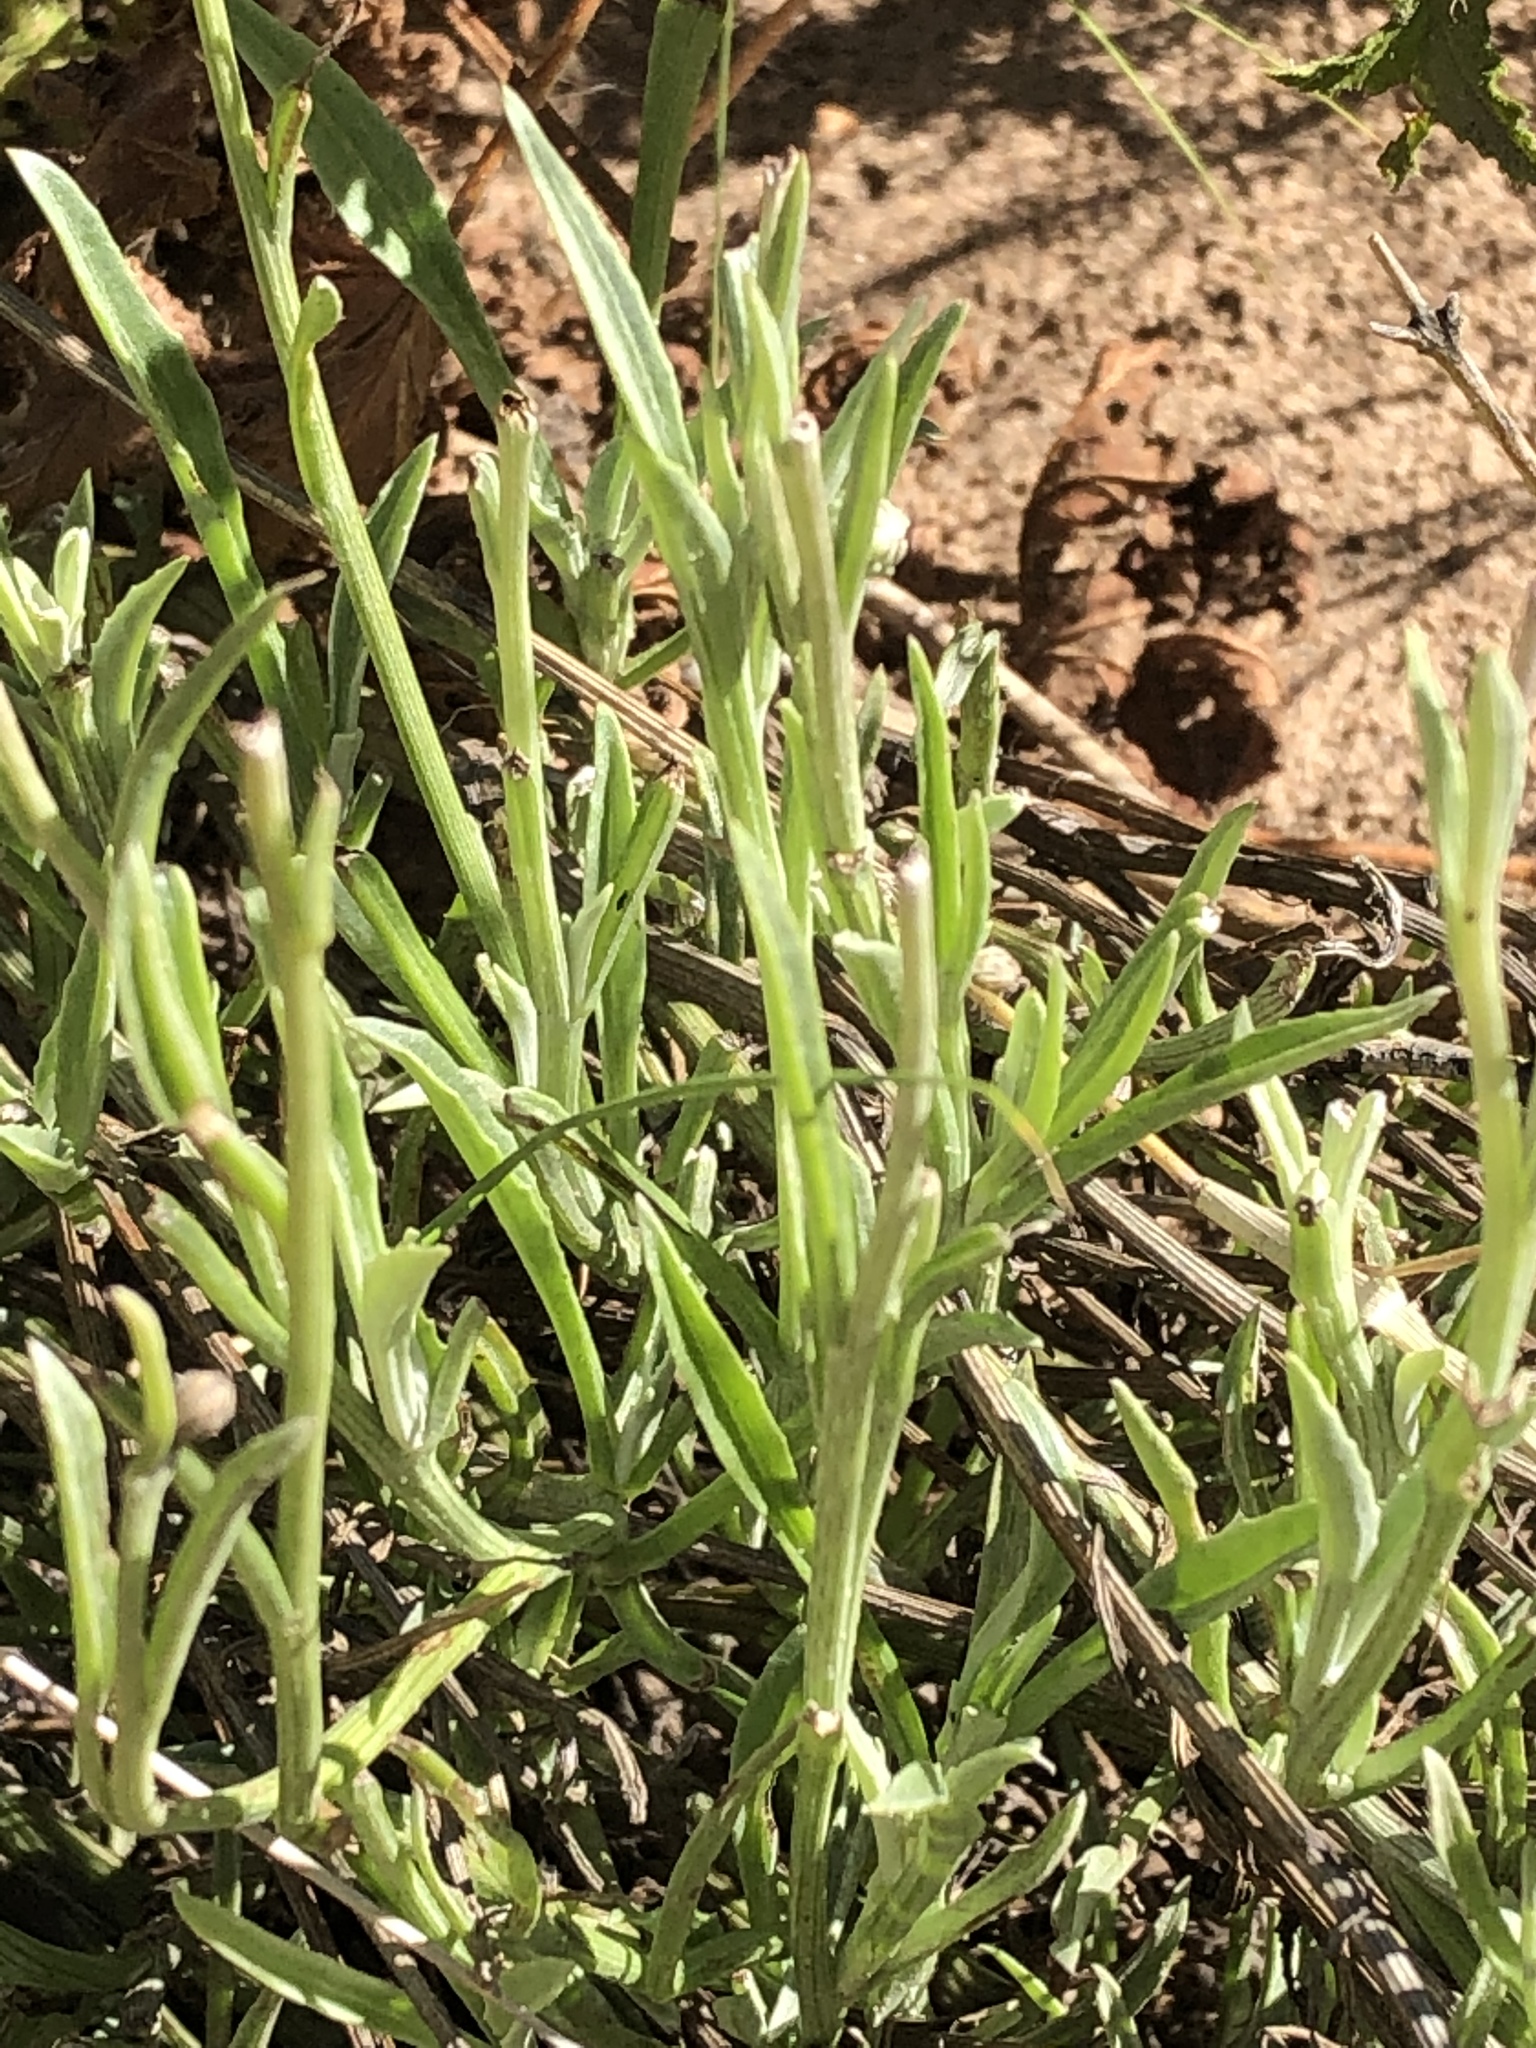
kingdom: Plantae
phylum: Tracheophyta
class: Magnoliopsida
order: Asterales
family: Asteraceae
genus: Arctotis
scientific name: Arctotis lanceolata
